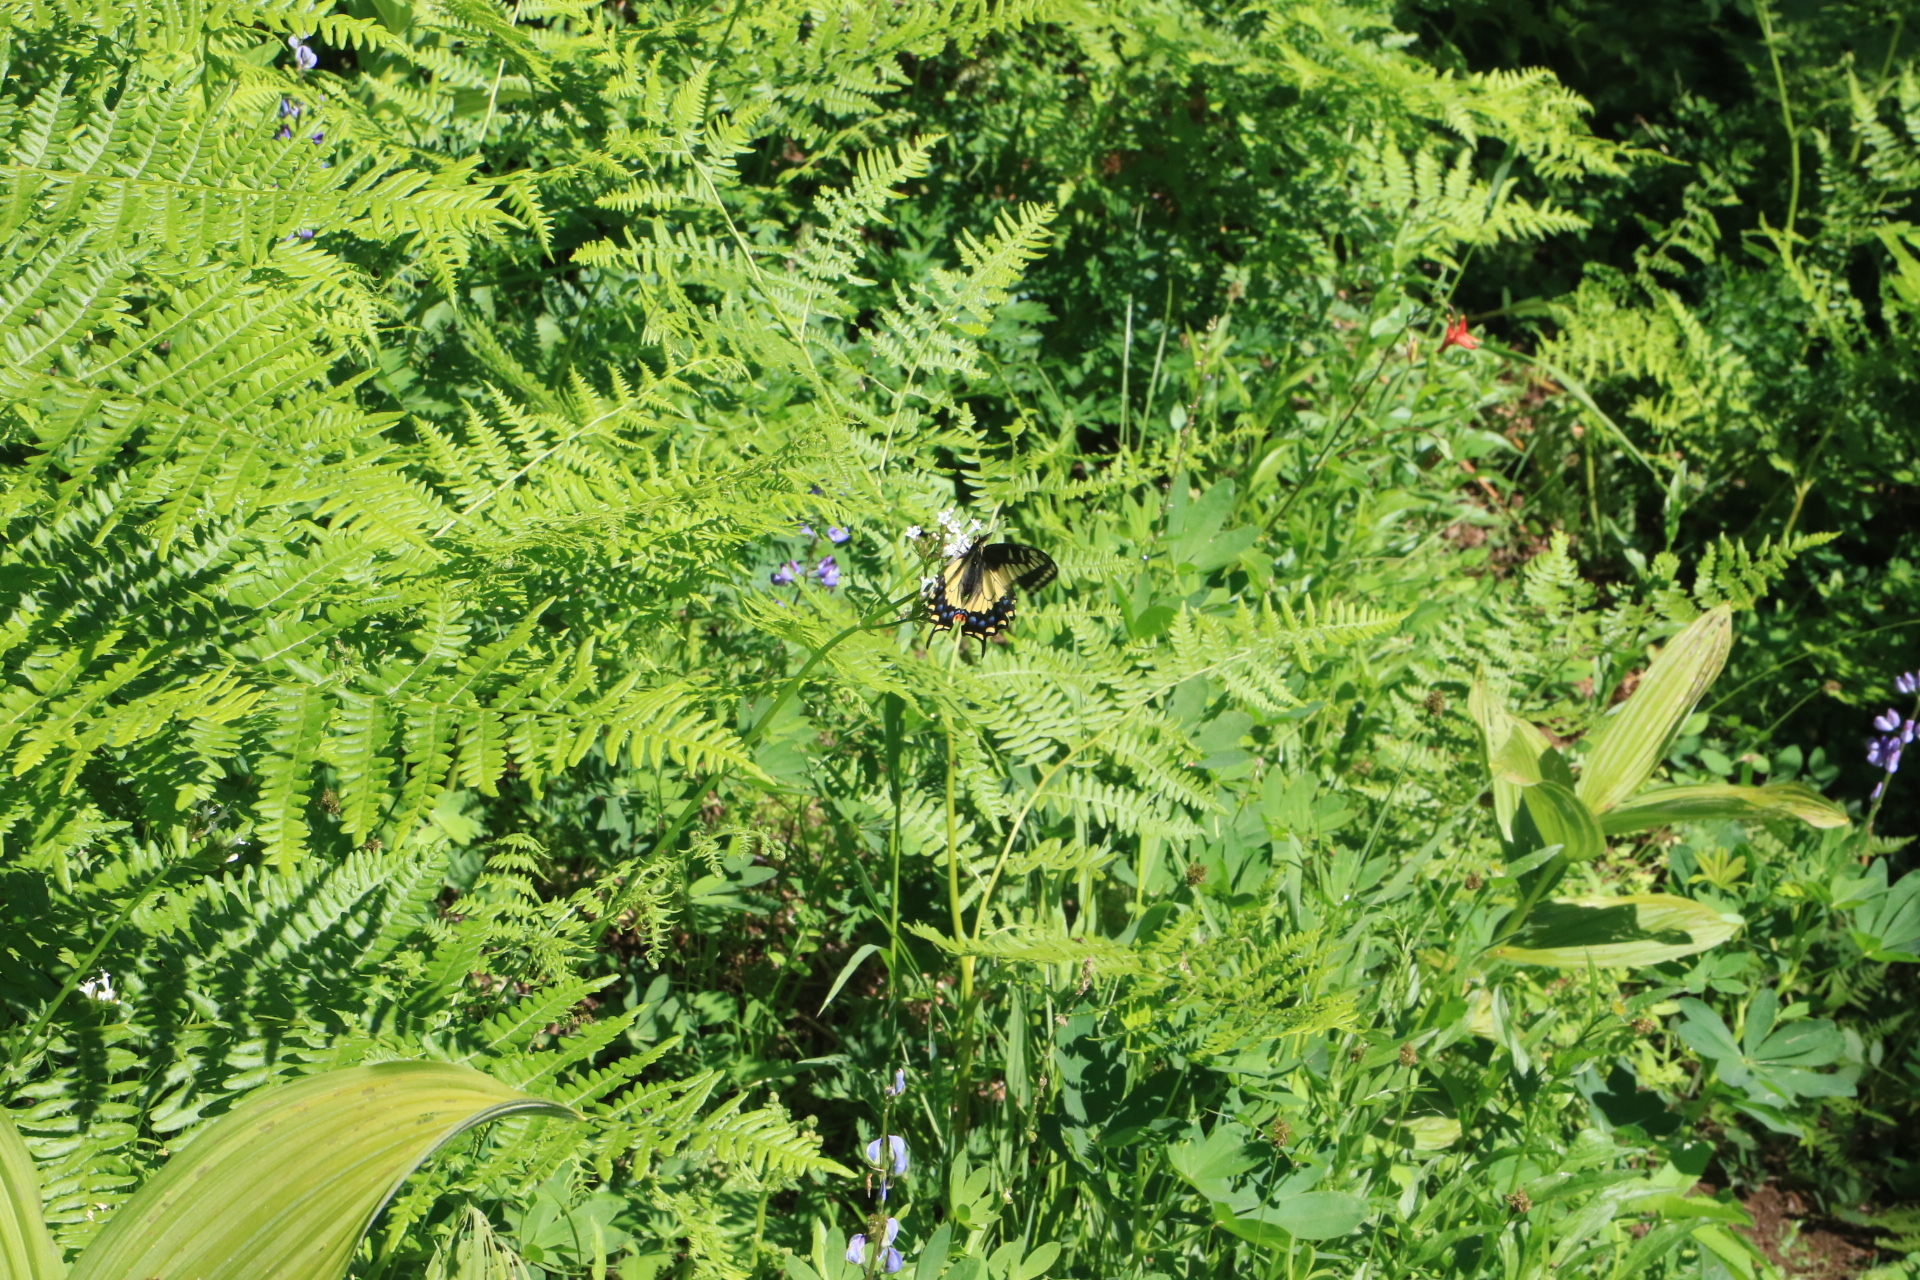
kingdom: Animalia
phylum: Arthropoda
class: Insecta
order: Lepidoptera
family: Papilionidae
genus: Papilio
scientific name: Papilio zelicaon
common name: Anise swallowtail
